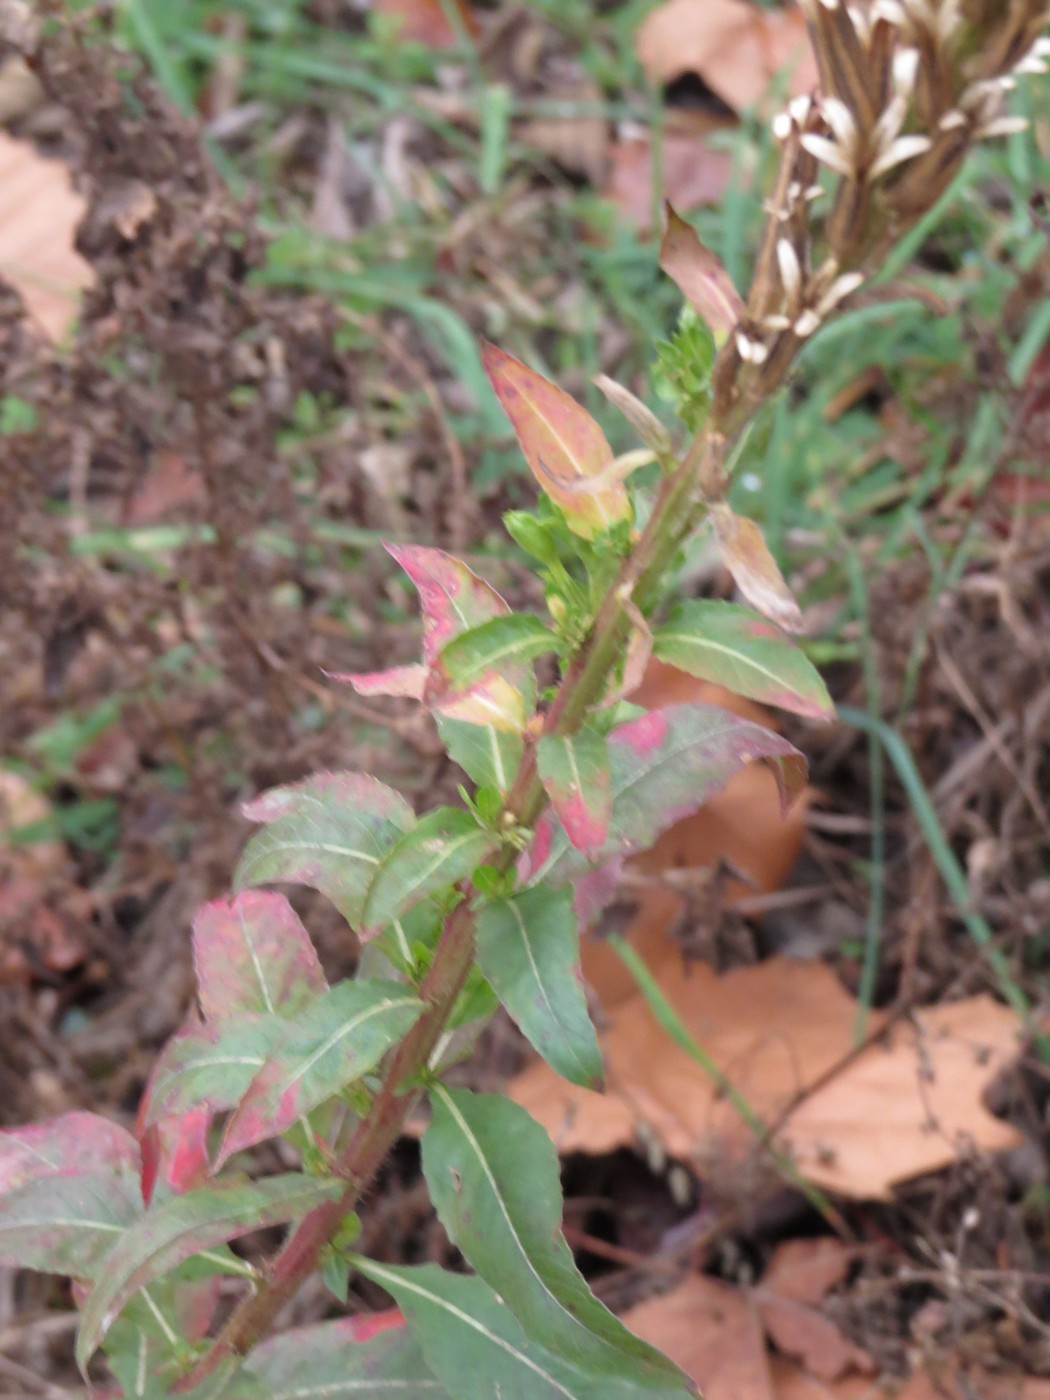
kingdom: Plantae
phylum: Tracheophyta
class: Magnoliopsida
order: Myrtales
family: Onagraceae
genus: Oenothera
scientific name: Oenothera biennis
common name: Common evening-primrose
